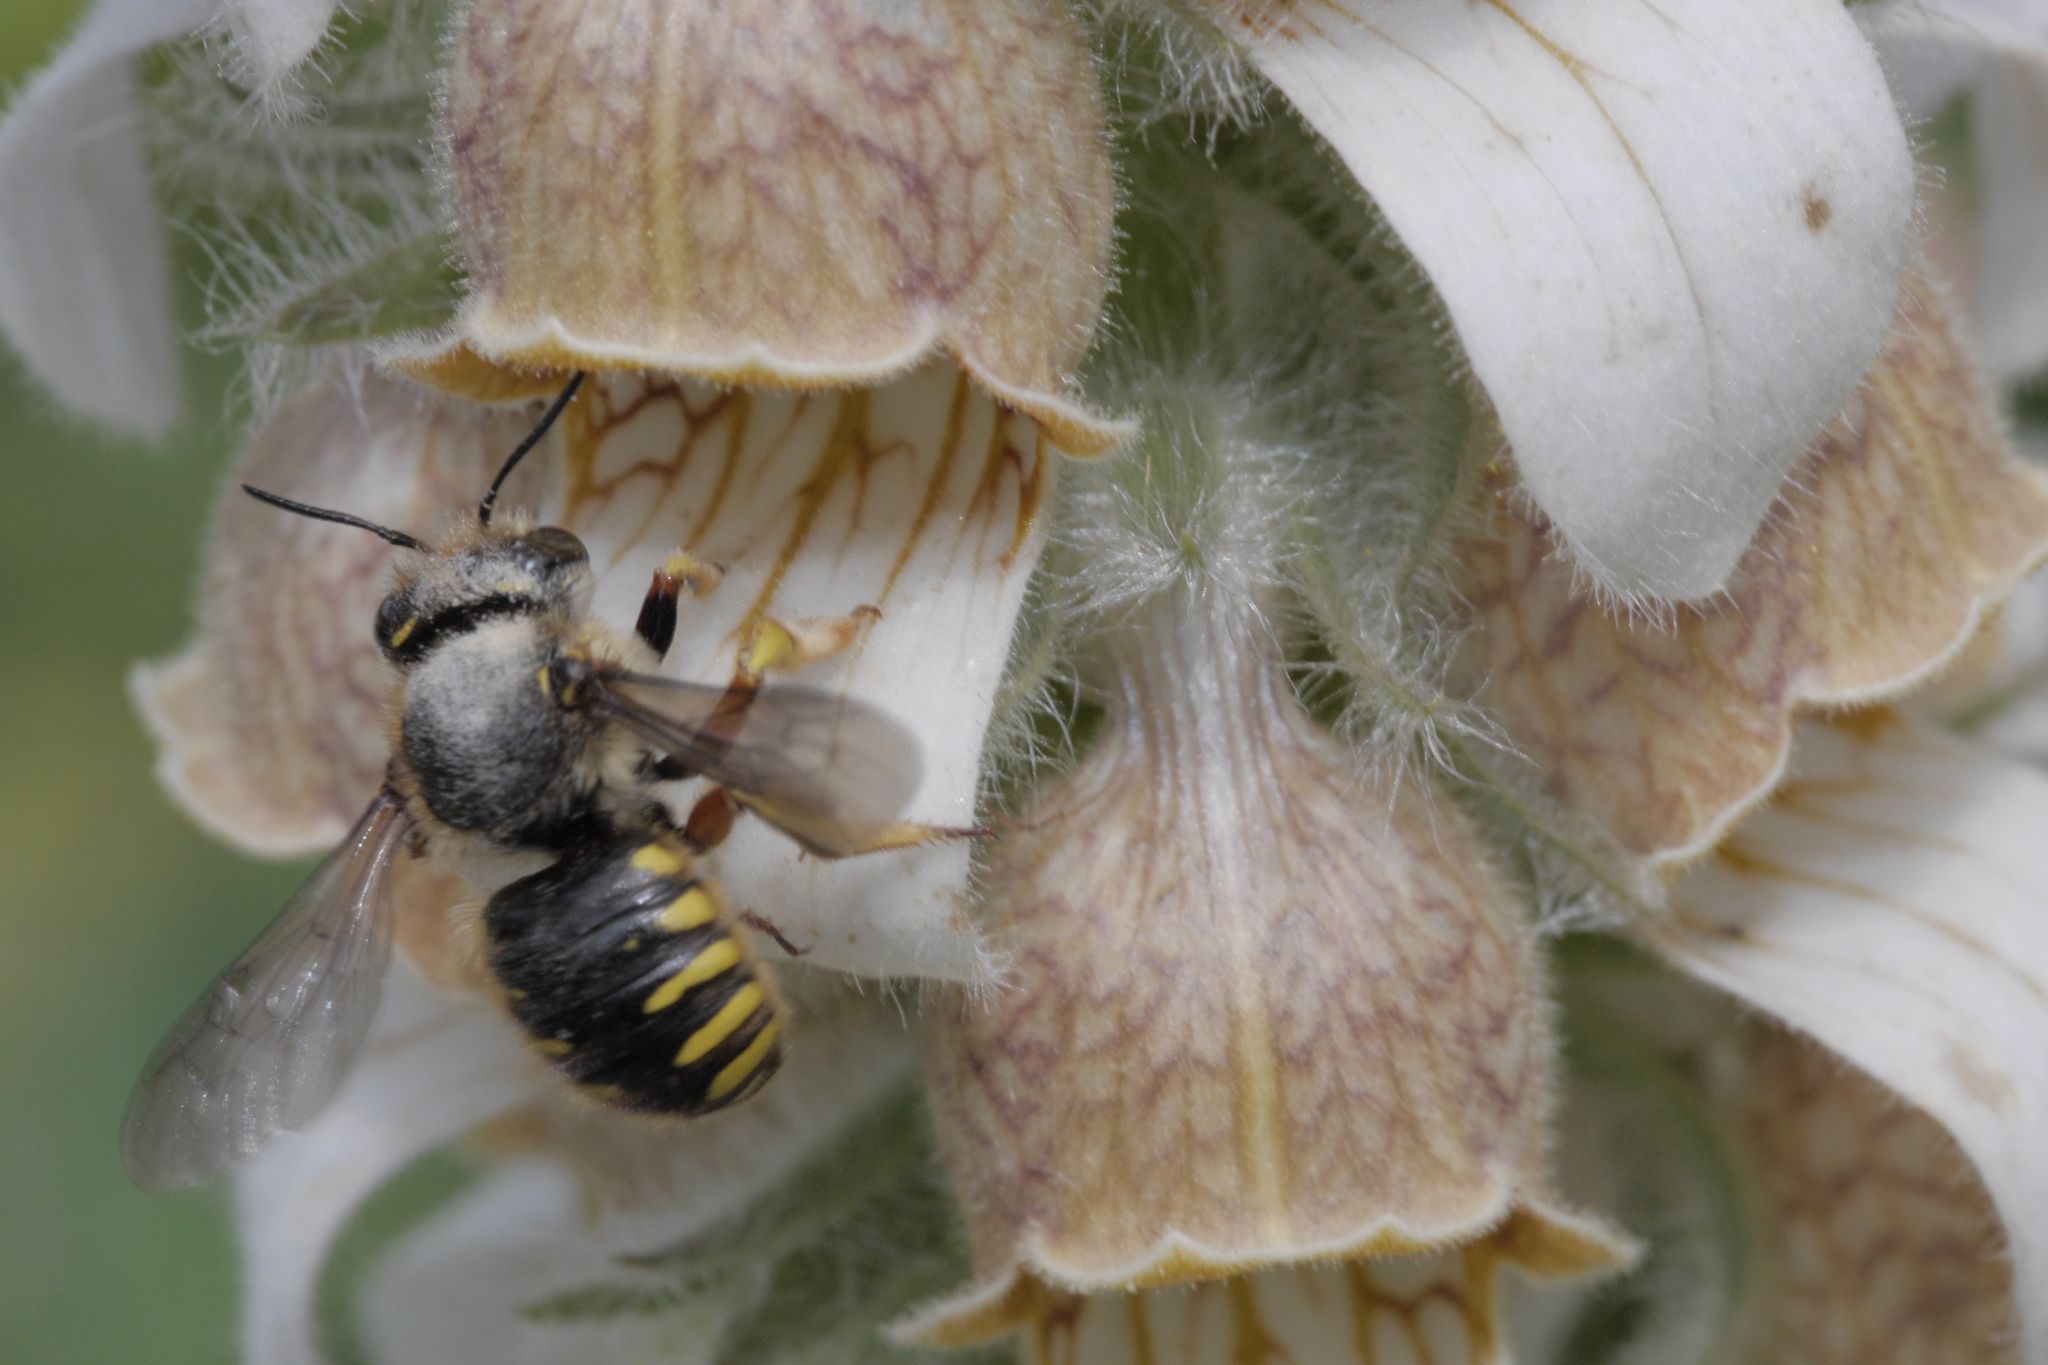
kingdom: Animalia
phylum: Arthropoda
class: Insecta
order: Hymenoptera
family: Megachilidae
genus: Anthidium
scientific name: Anthidium manicatum
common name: Wool carder bee
